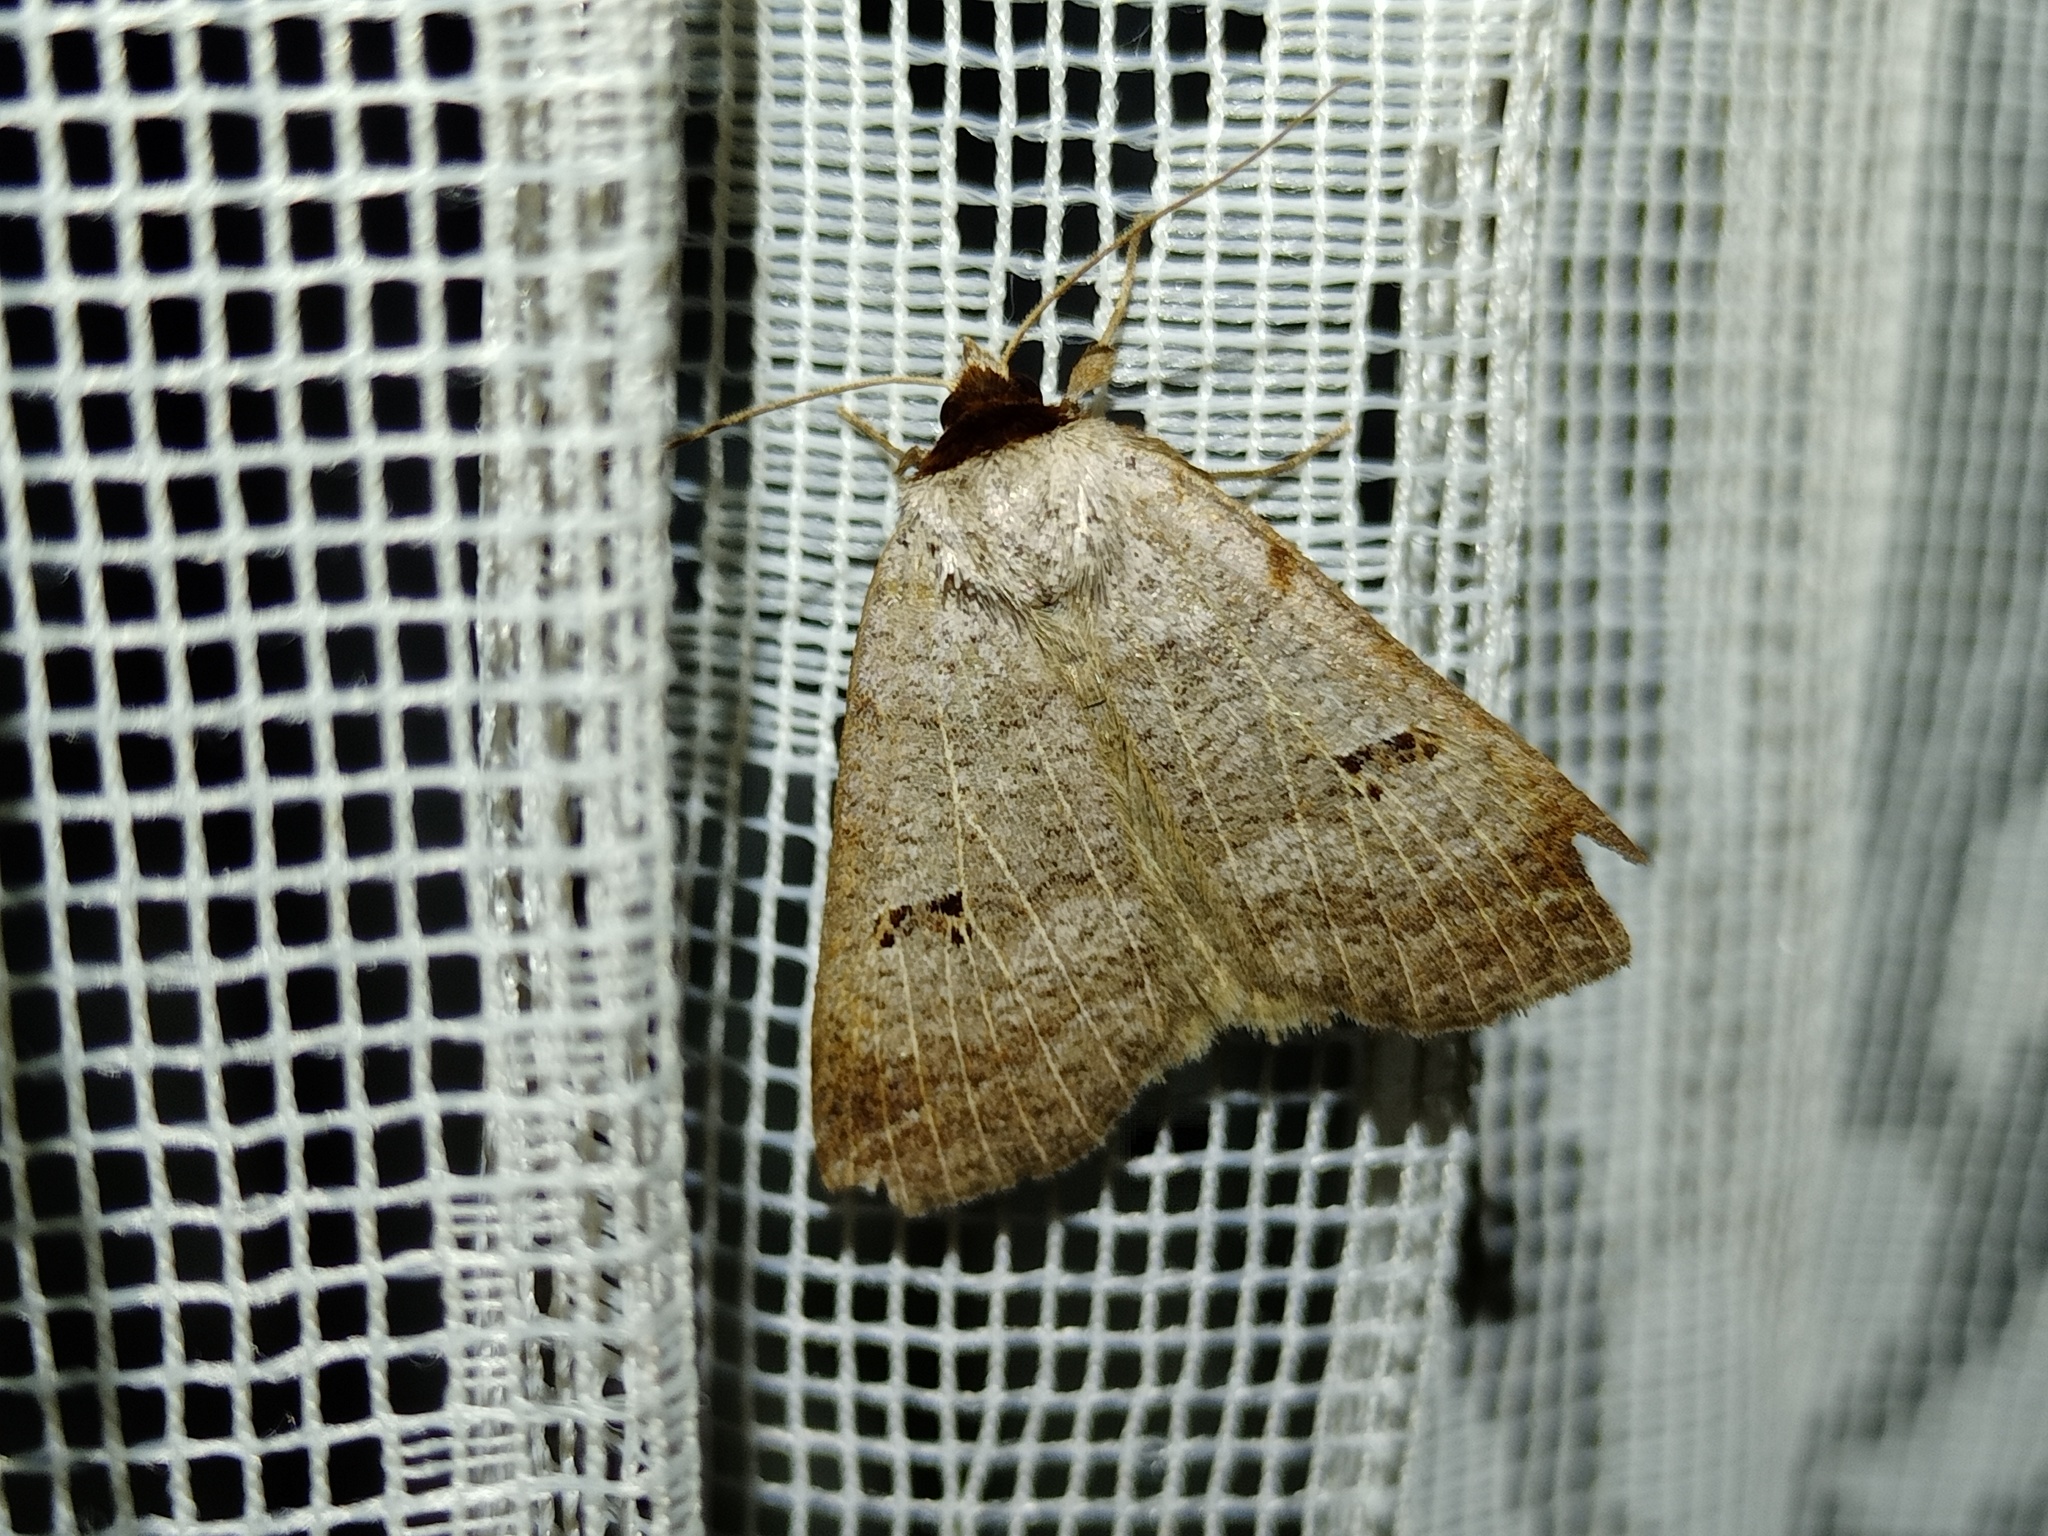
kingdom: Animalia
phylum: Arthropoda
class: Insecta
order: Lepidoptera
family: Erebidae
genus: Lygephila
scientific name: Lygephila viciae
